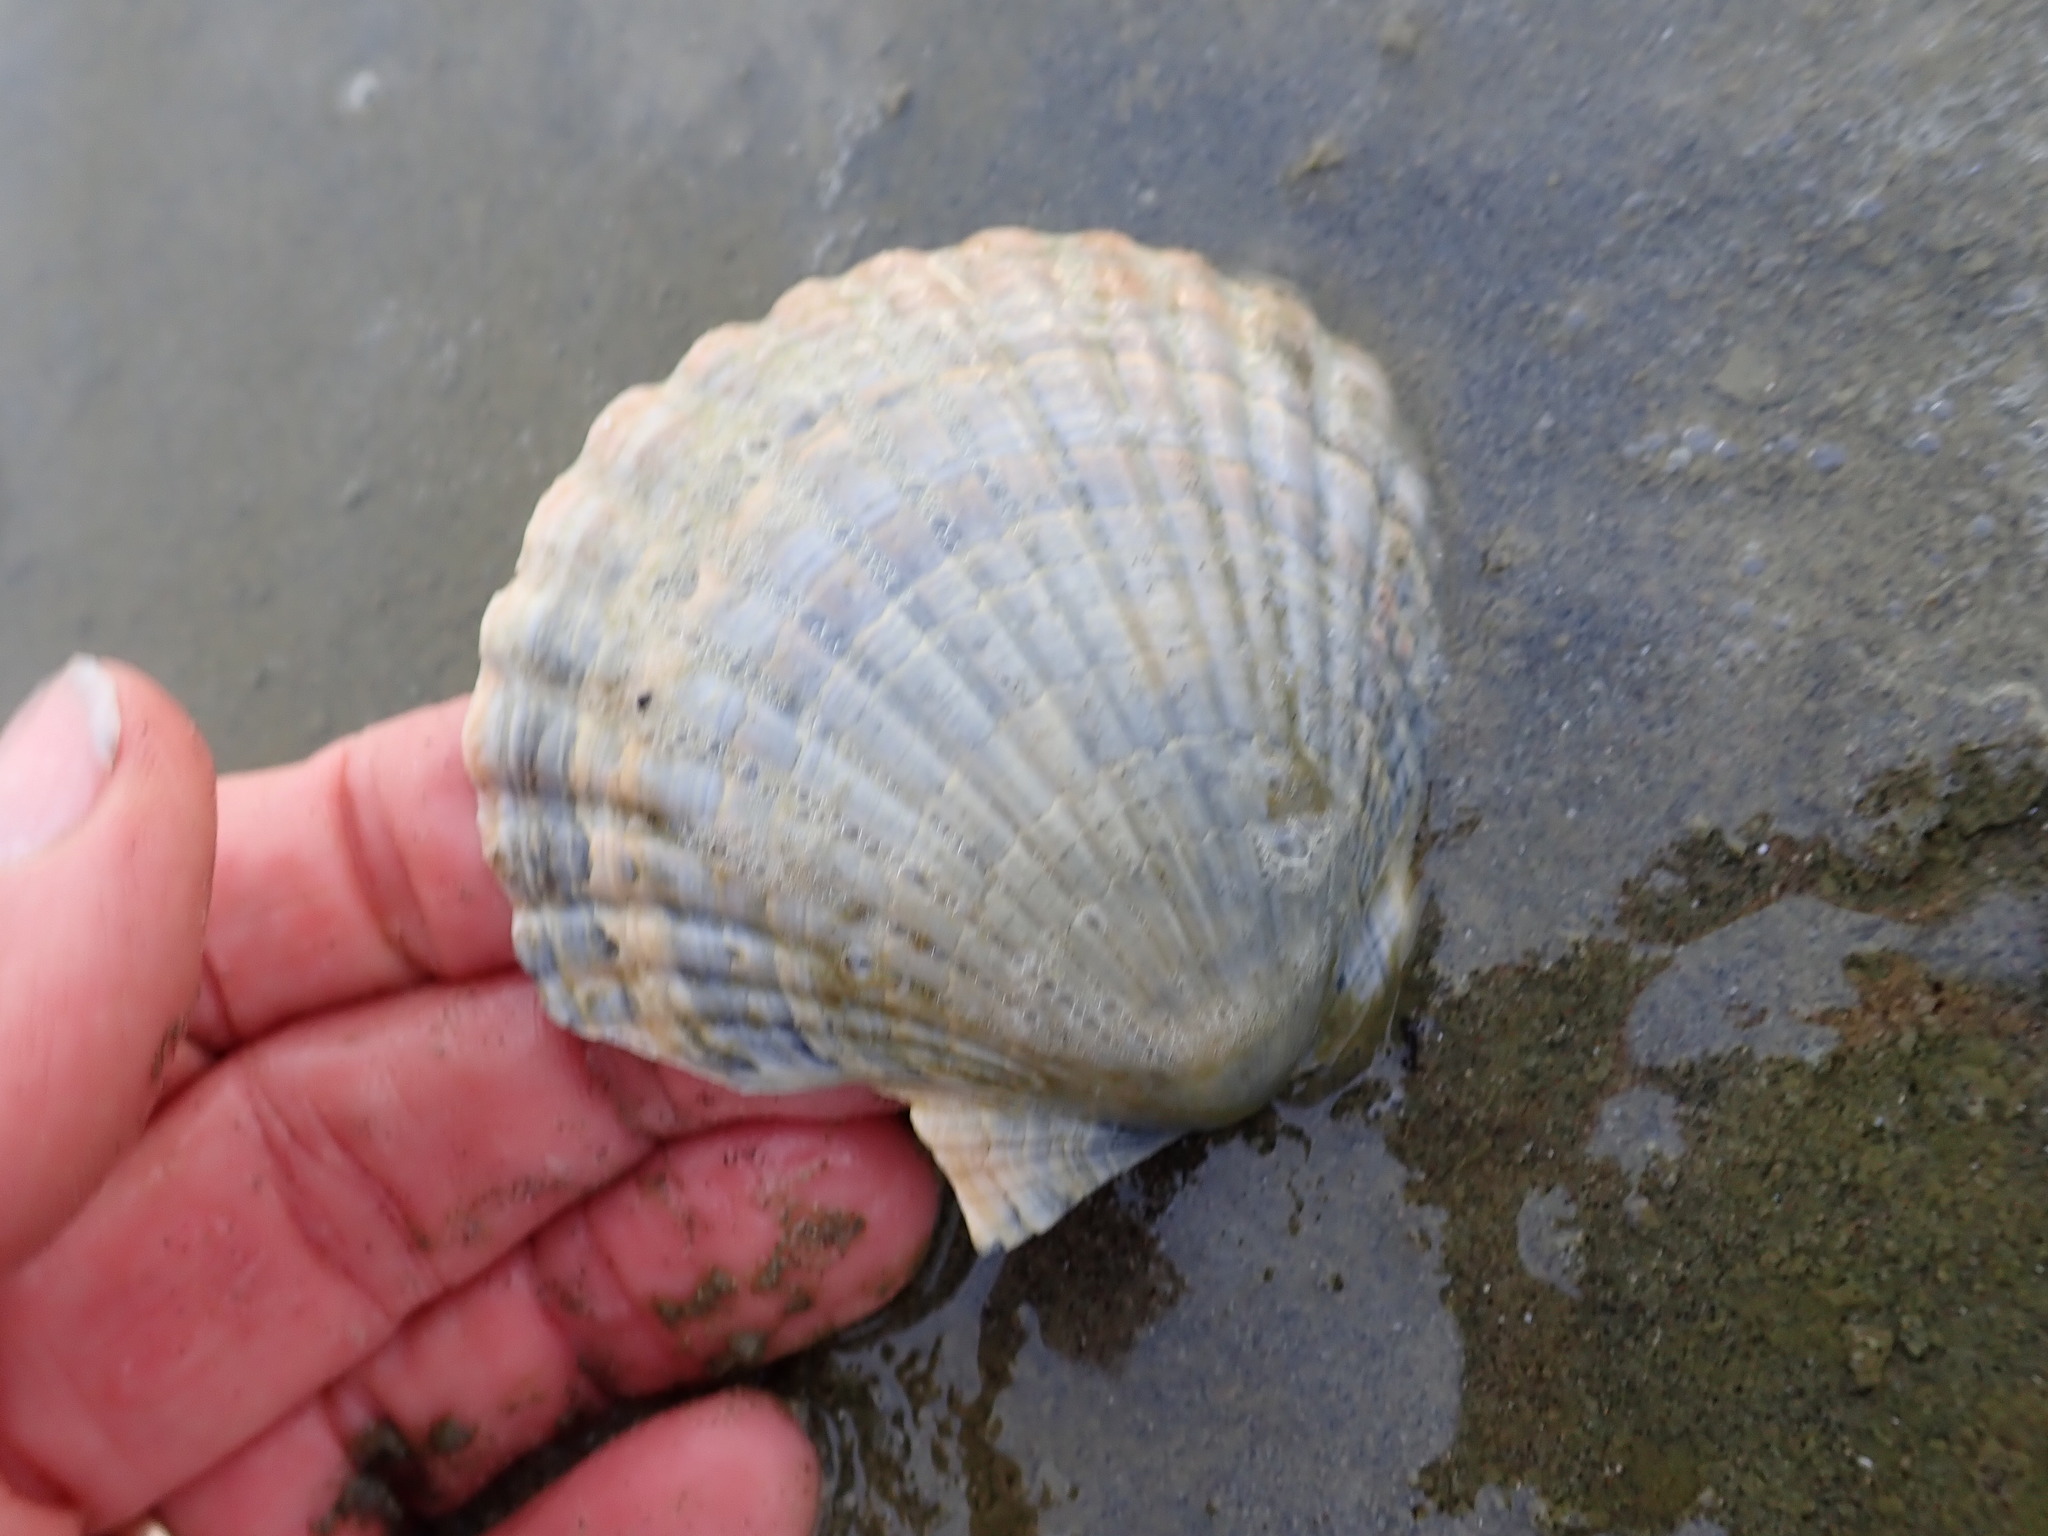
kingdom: Animalia
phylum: Mollusca
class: Bivalvia
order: Pectinida
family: Pectinidae
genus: Pecten
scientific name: Pecten novaezelandiae
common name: New zealand scallop
